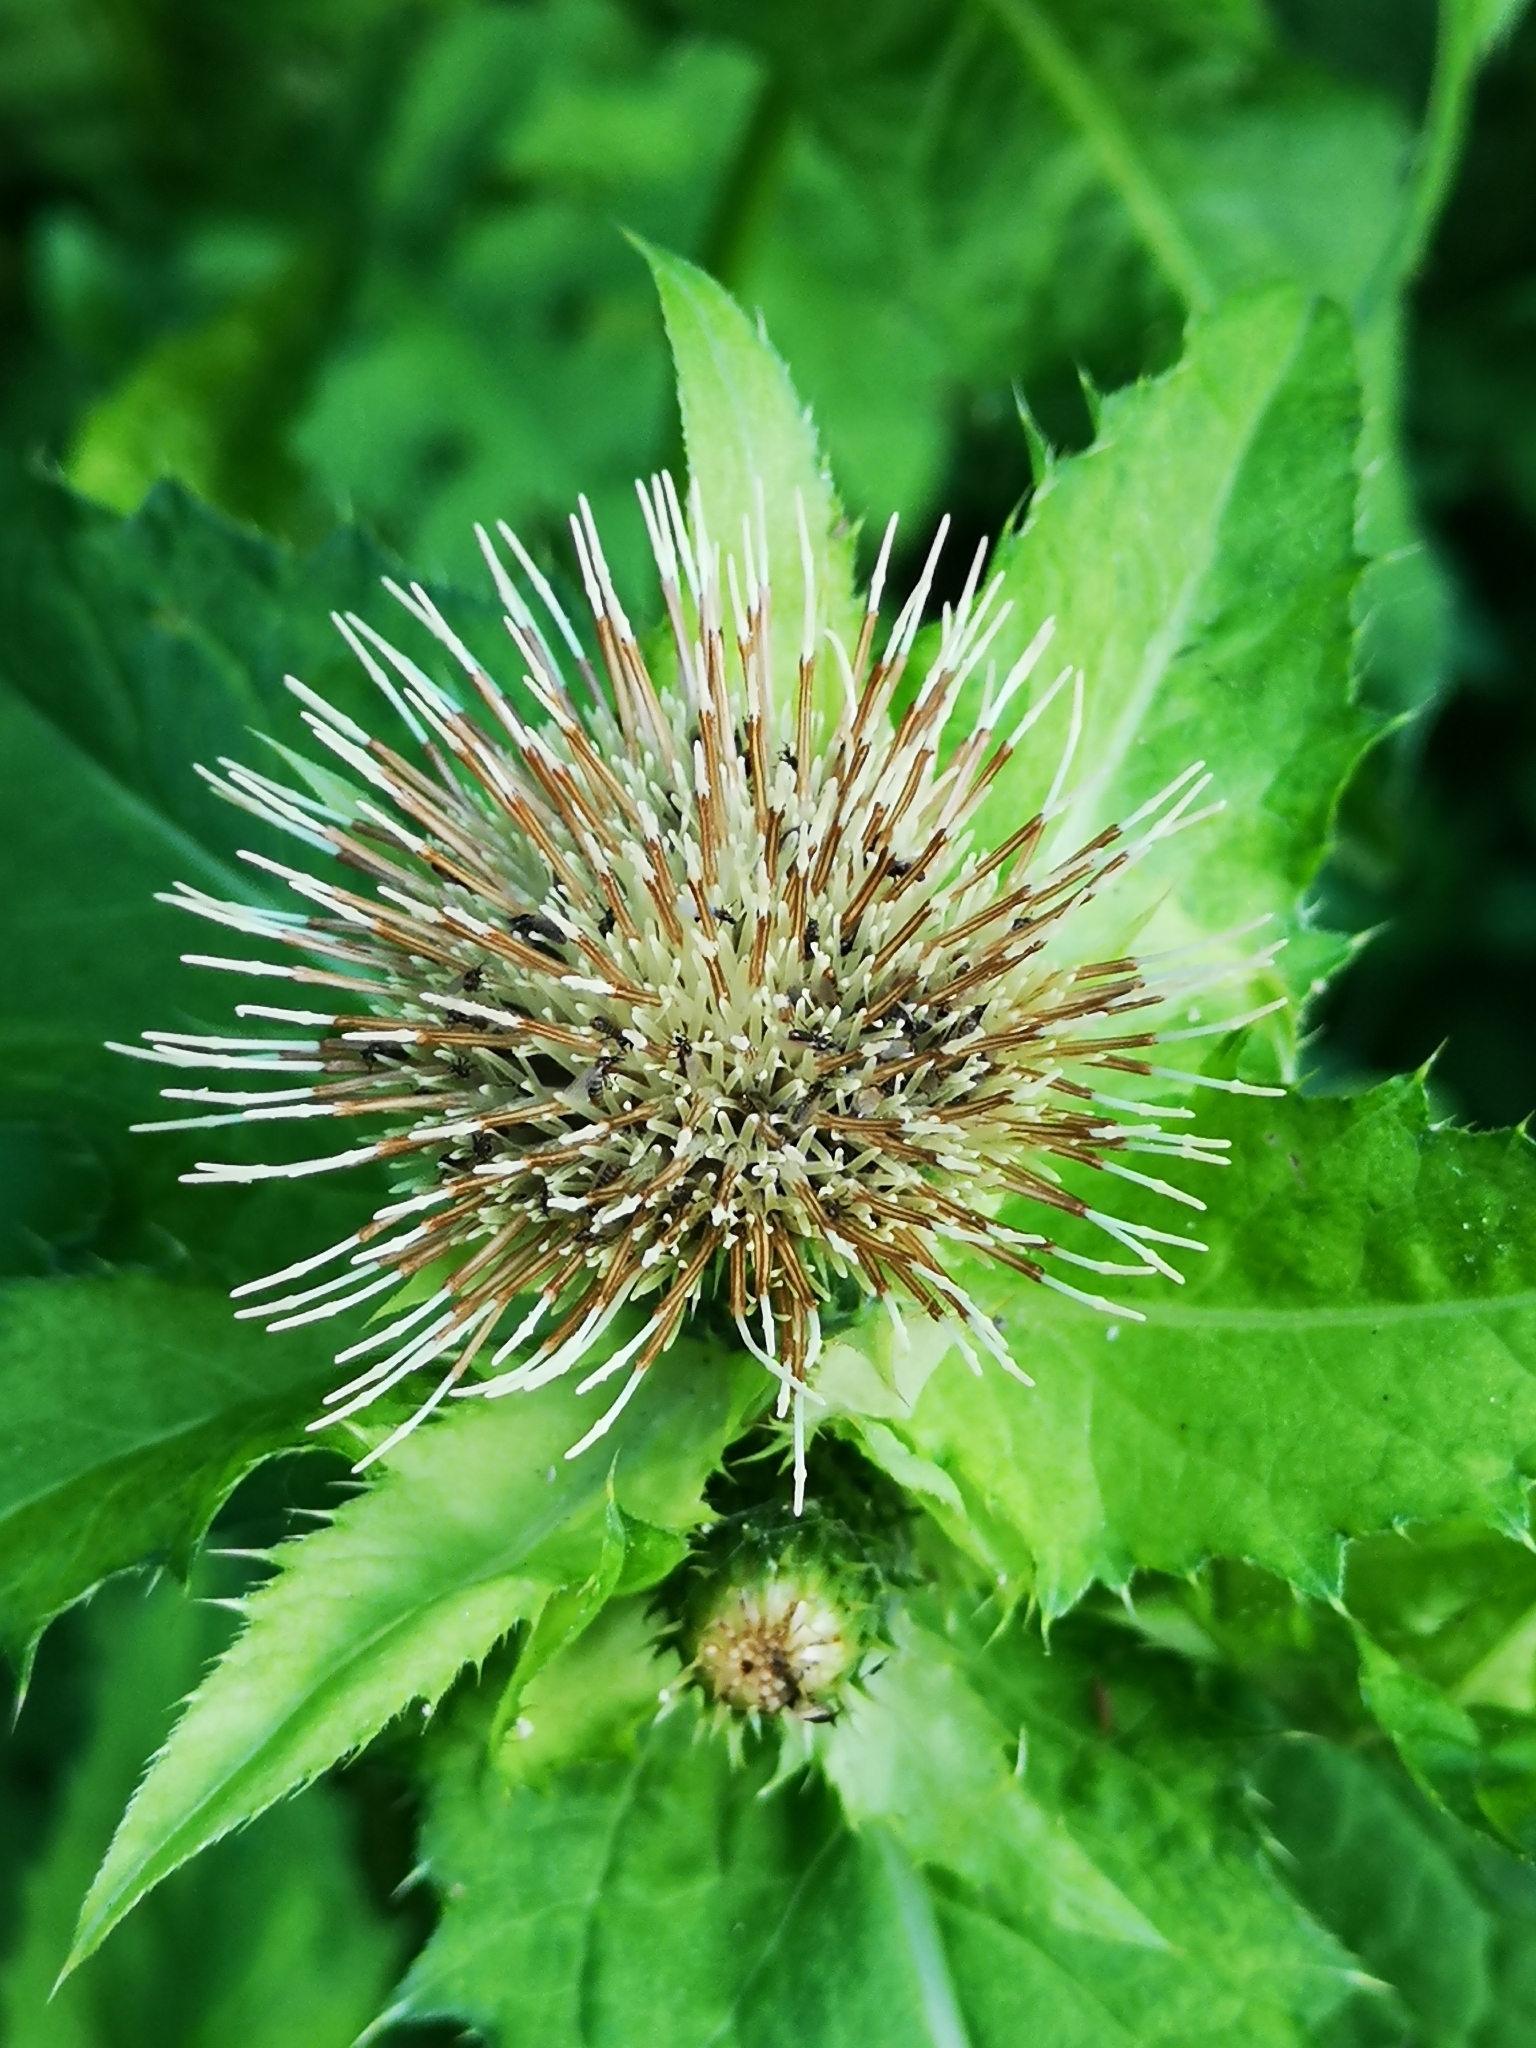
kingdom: Plantae
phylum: Tracheophyta
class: Magnoliopsida
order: Asterales
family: Asteraceae
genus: Cirsium
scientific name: Cirsium oleraceum
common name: Cabbage thistle
